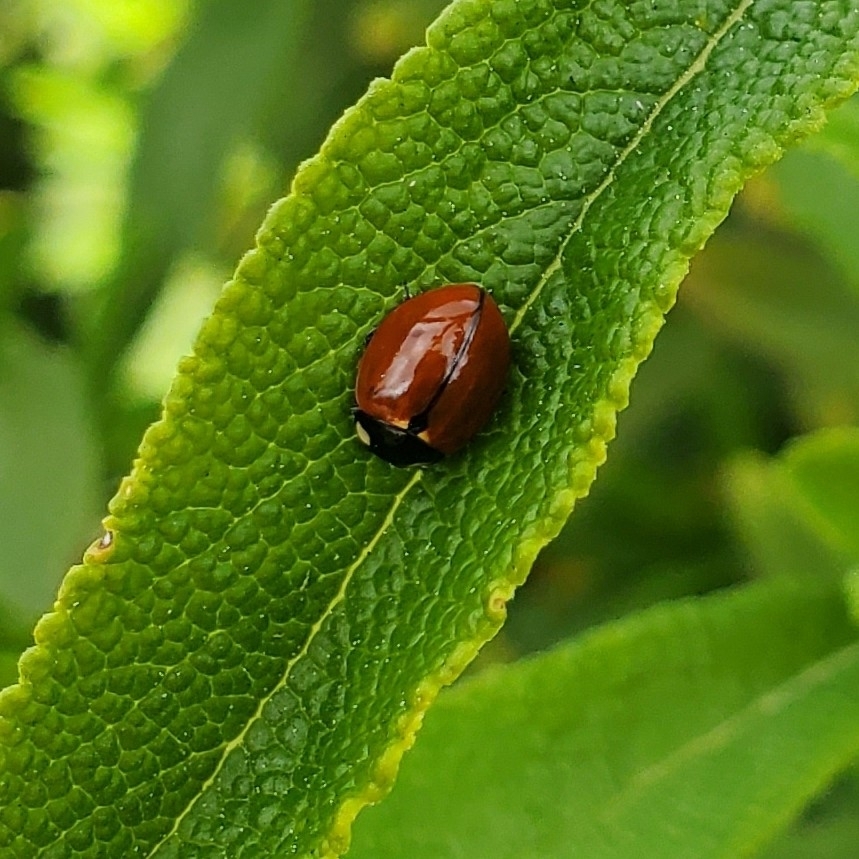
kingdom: Animalia
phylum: Arthropoda
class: Insecta
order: Coleoptera
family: Coccinellidae
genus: Coccinella
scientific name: Coccinella californica
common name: Lady beetle
